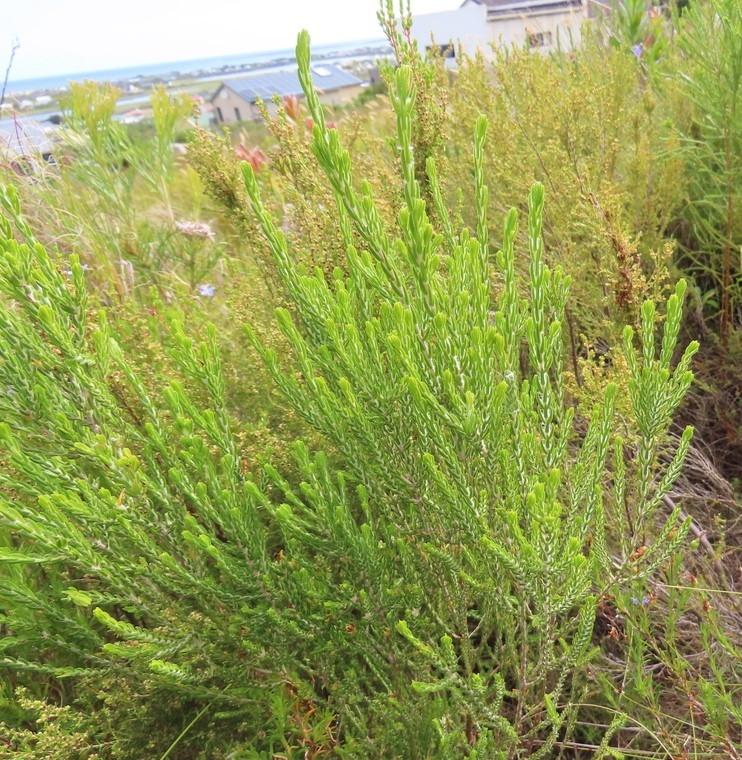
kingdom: Plantae
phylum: Tracheophyta
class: Magnoliopsida
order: Malvales
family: Thymelaeaceae
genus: Passerina
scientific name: Passerina corymbosa
